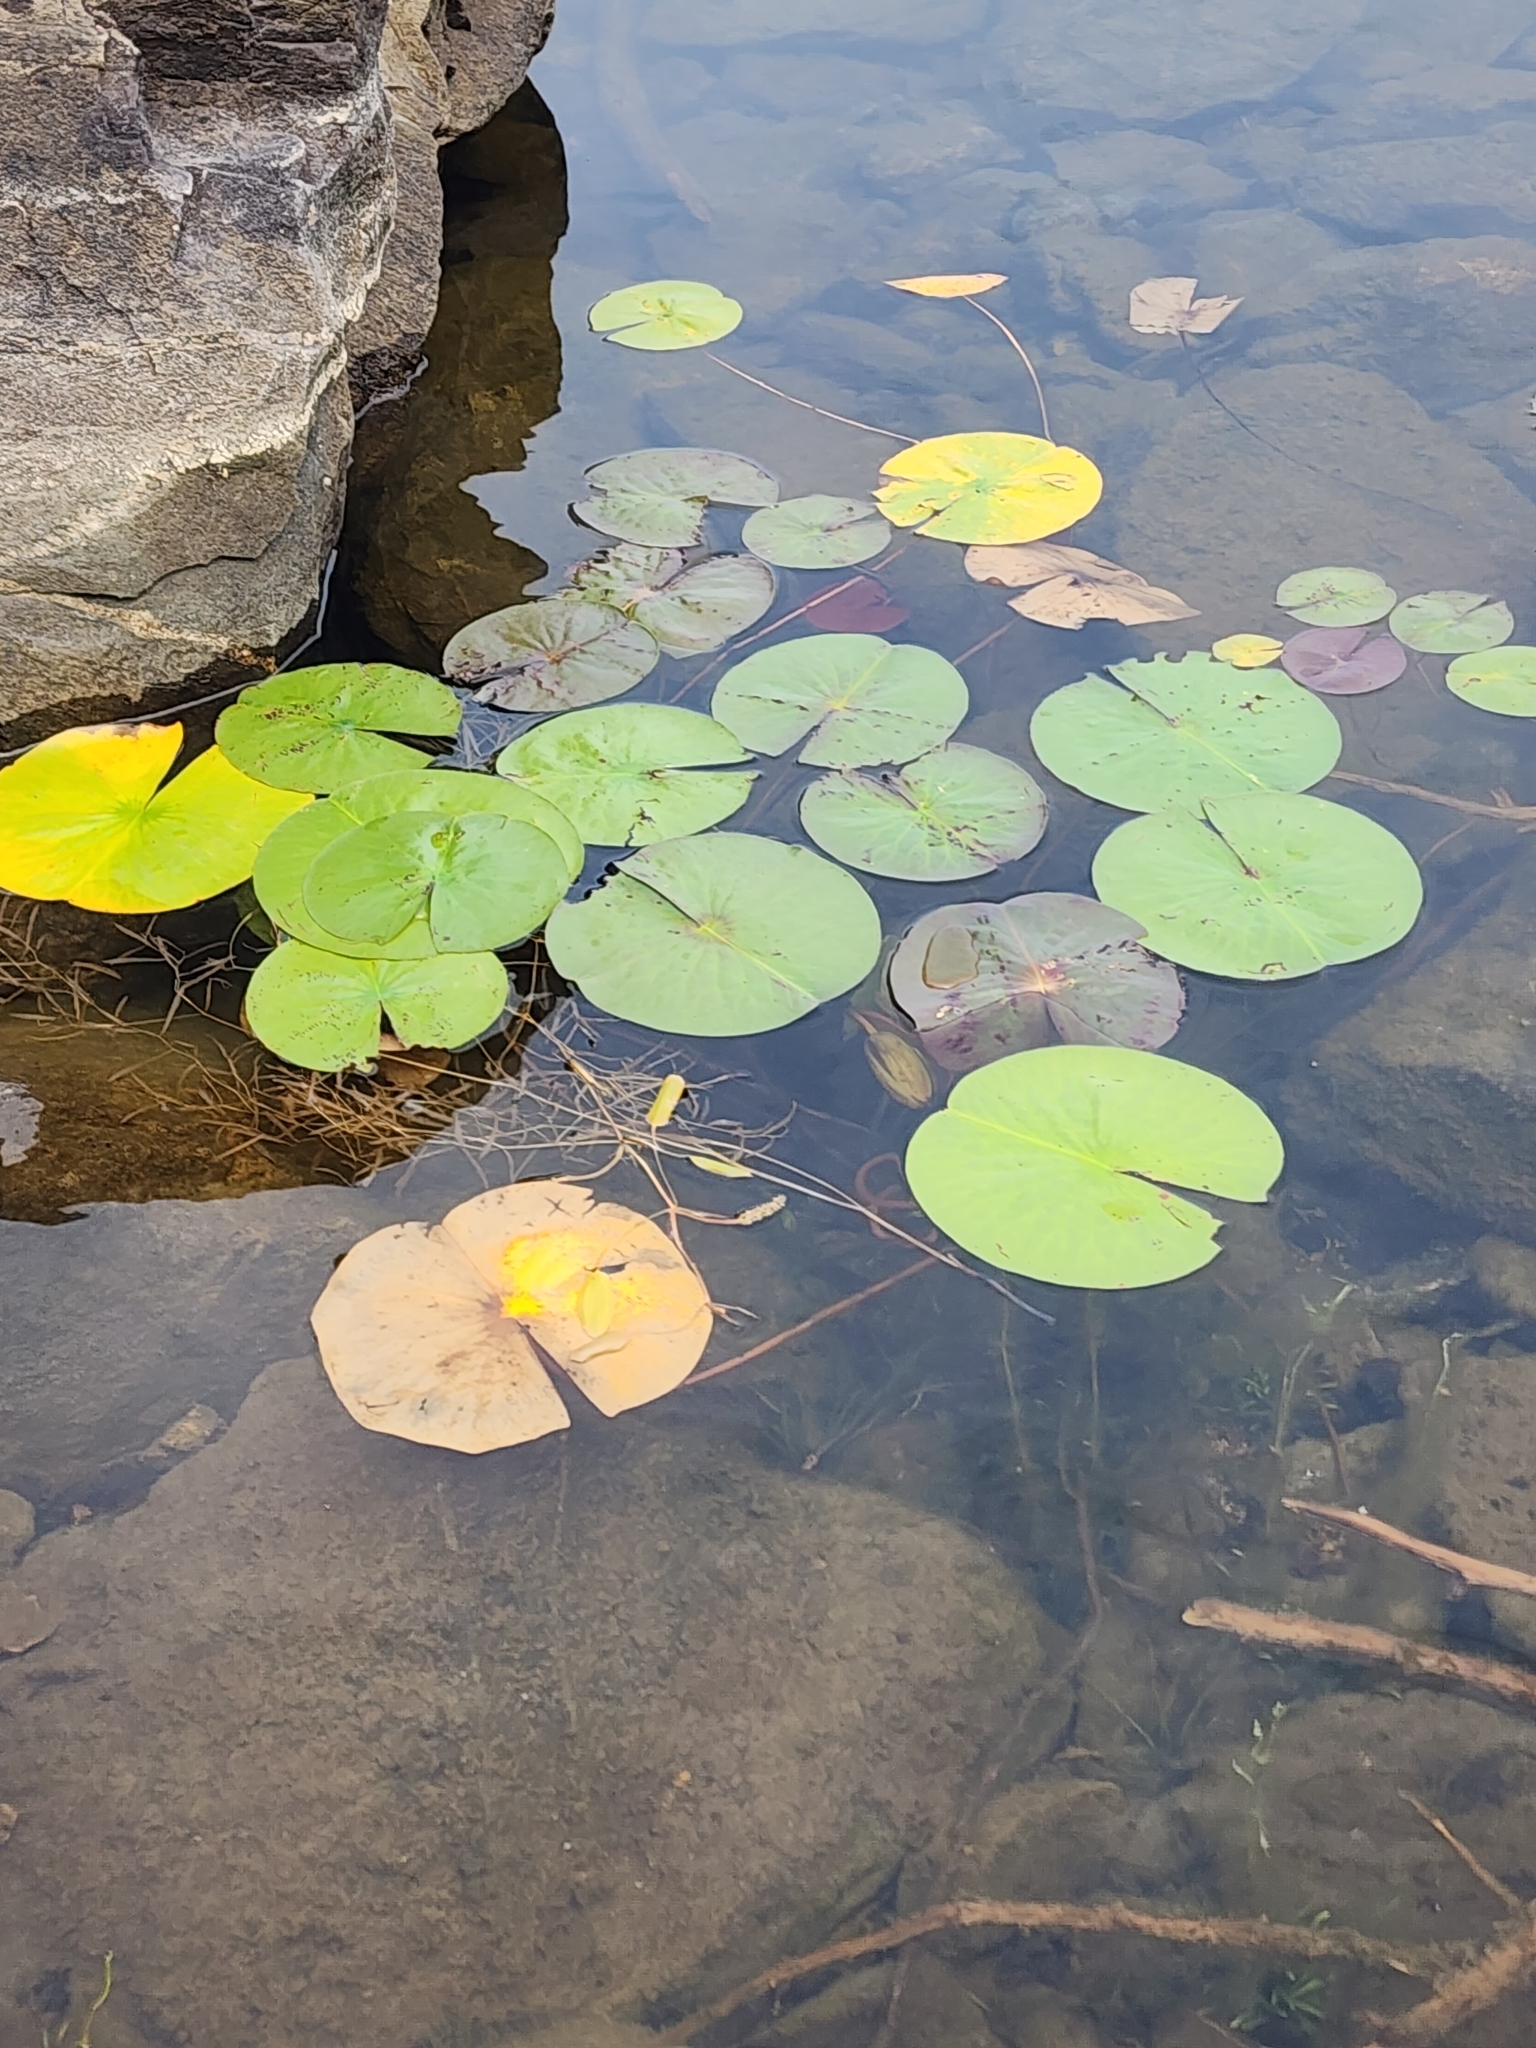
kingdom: Plantae
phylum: Tracheophyta
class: Magnoliopsida
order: Nymphaeales
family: Nymphaeaceae
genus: Nymphaea
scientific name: Nymphaea odorata
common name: Fragrant water-lily
